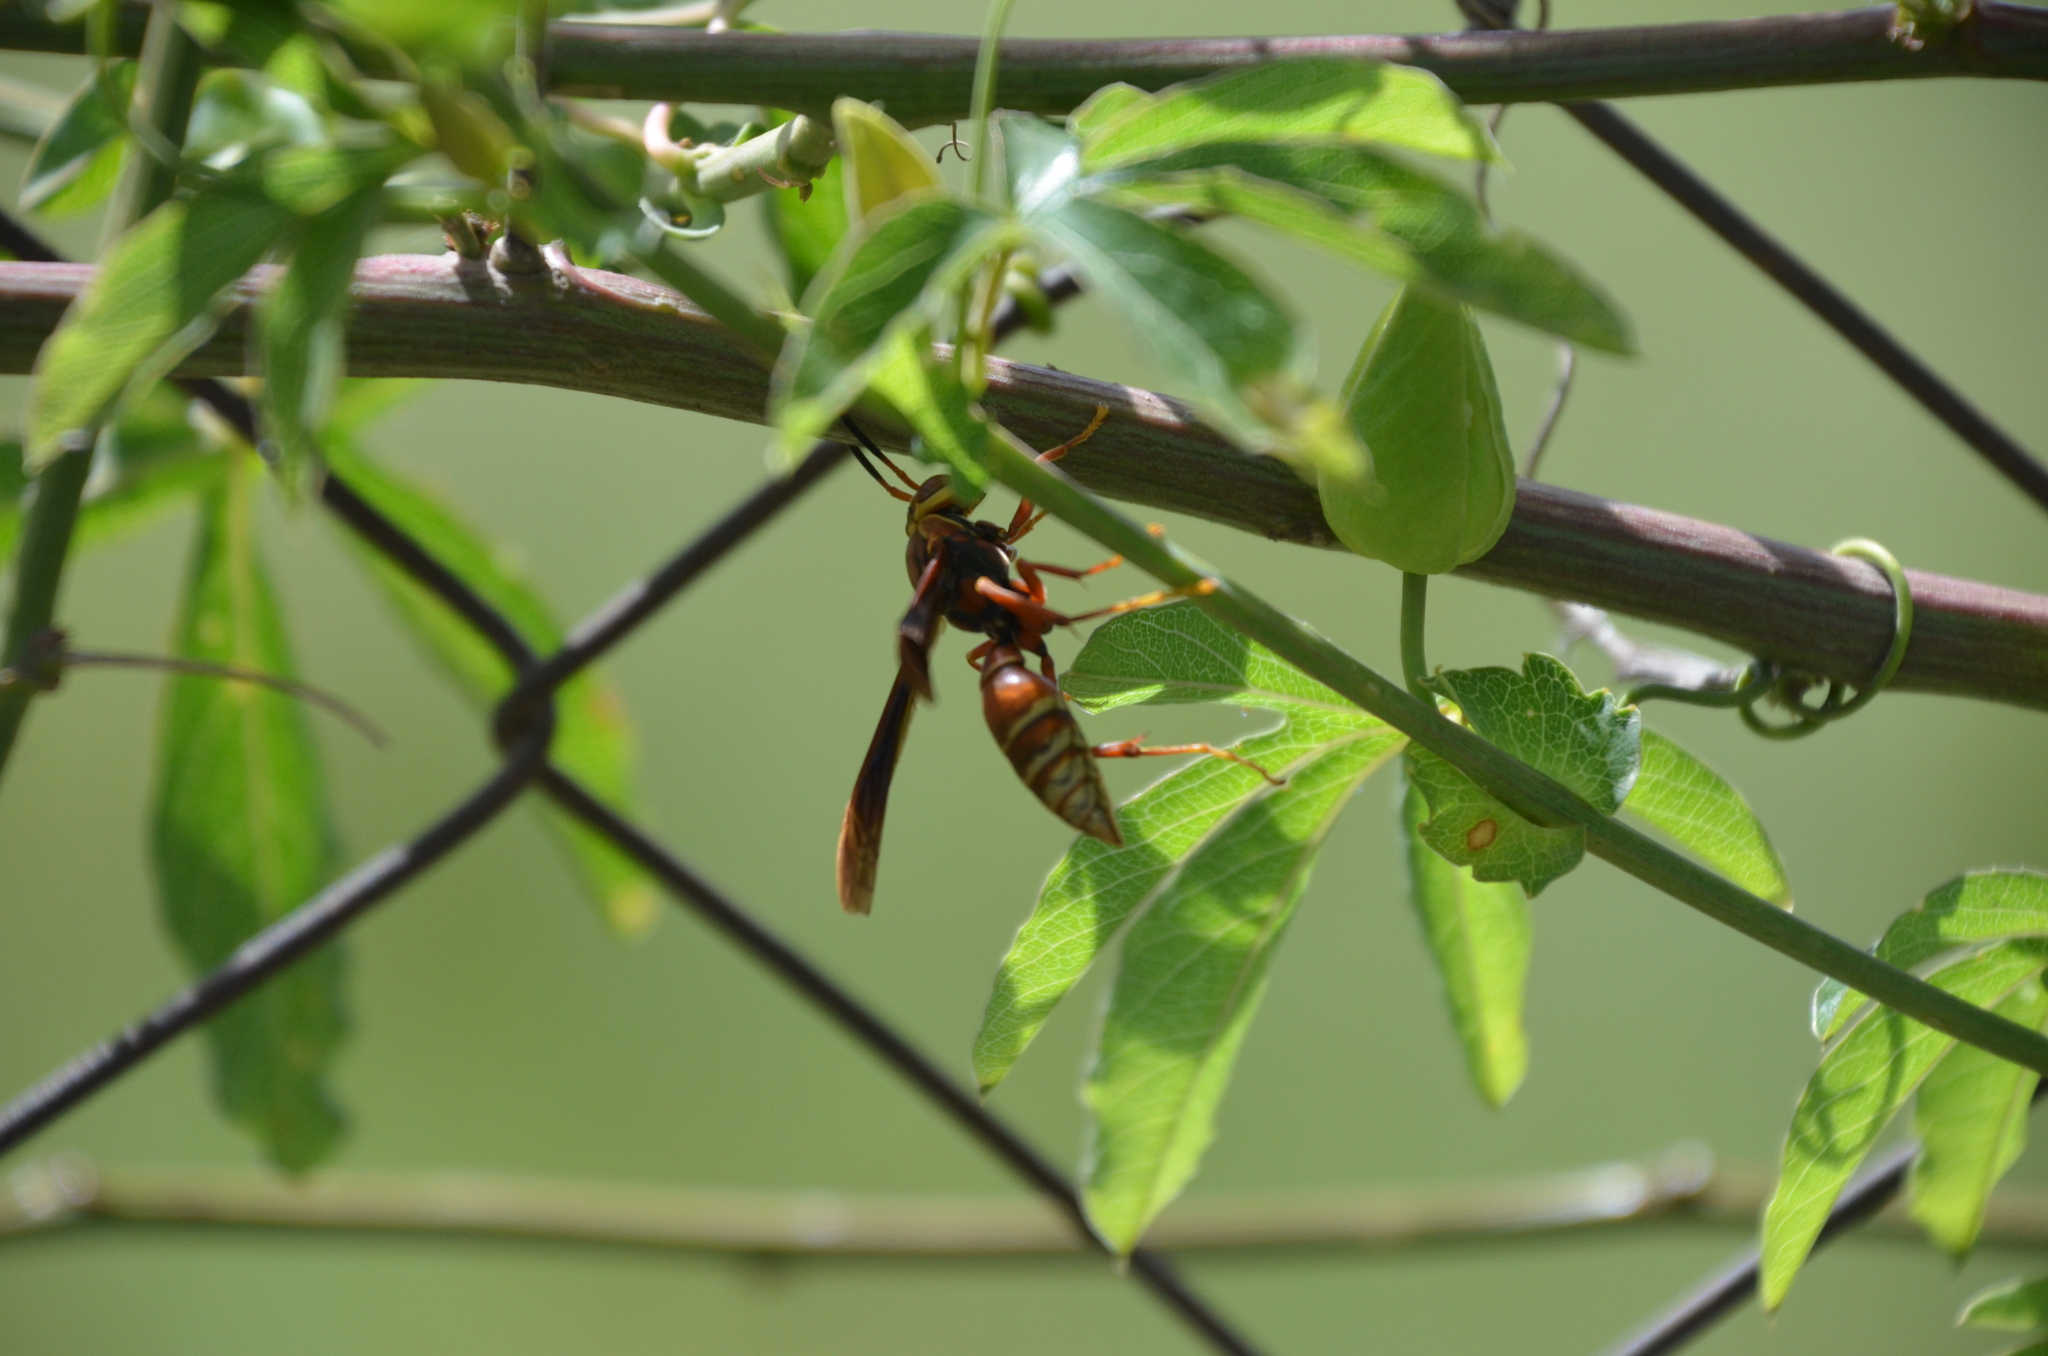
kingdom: Animalia
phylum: Arthropoda
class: Insecta
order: Hymenoptera
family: Eumenidae
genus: Polistes
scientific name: Polistes cavapyta
